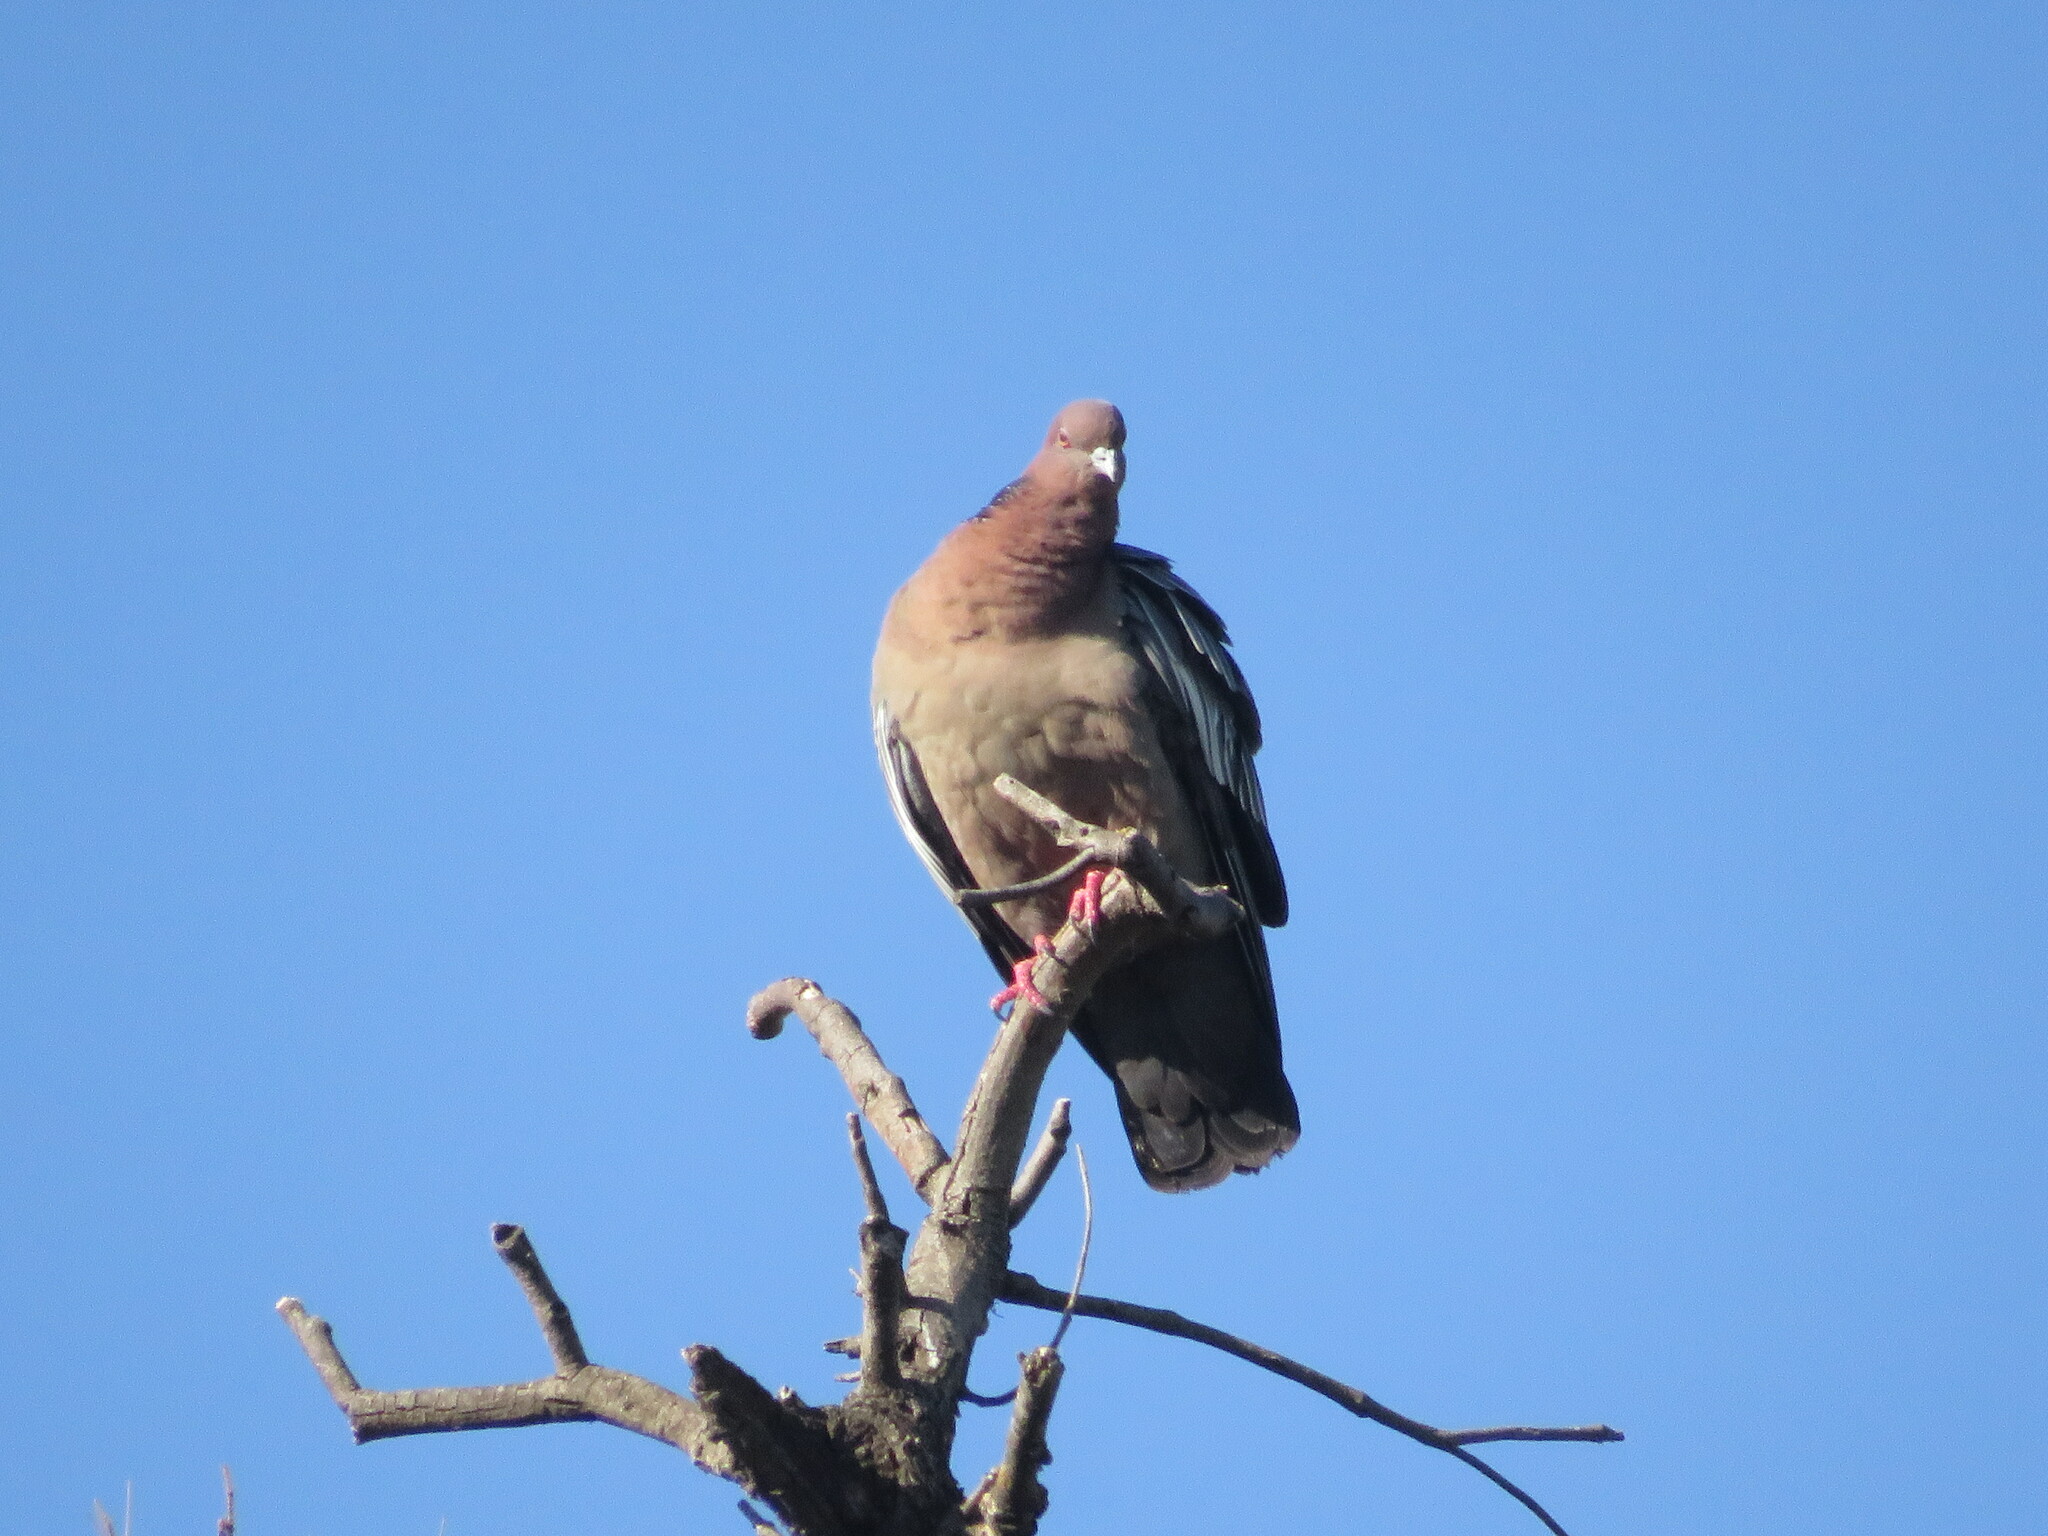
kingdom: Animalia
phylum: Chordata
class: Aves
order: Columbiformes
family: Columbidae
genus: Patagioenas
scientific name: Patagioenas picazuro
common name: Picazuro pigeon
